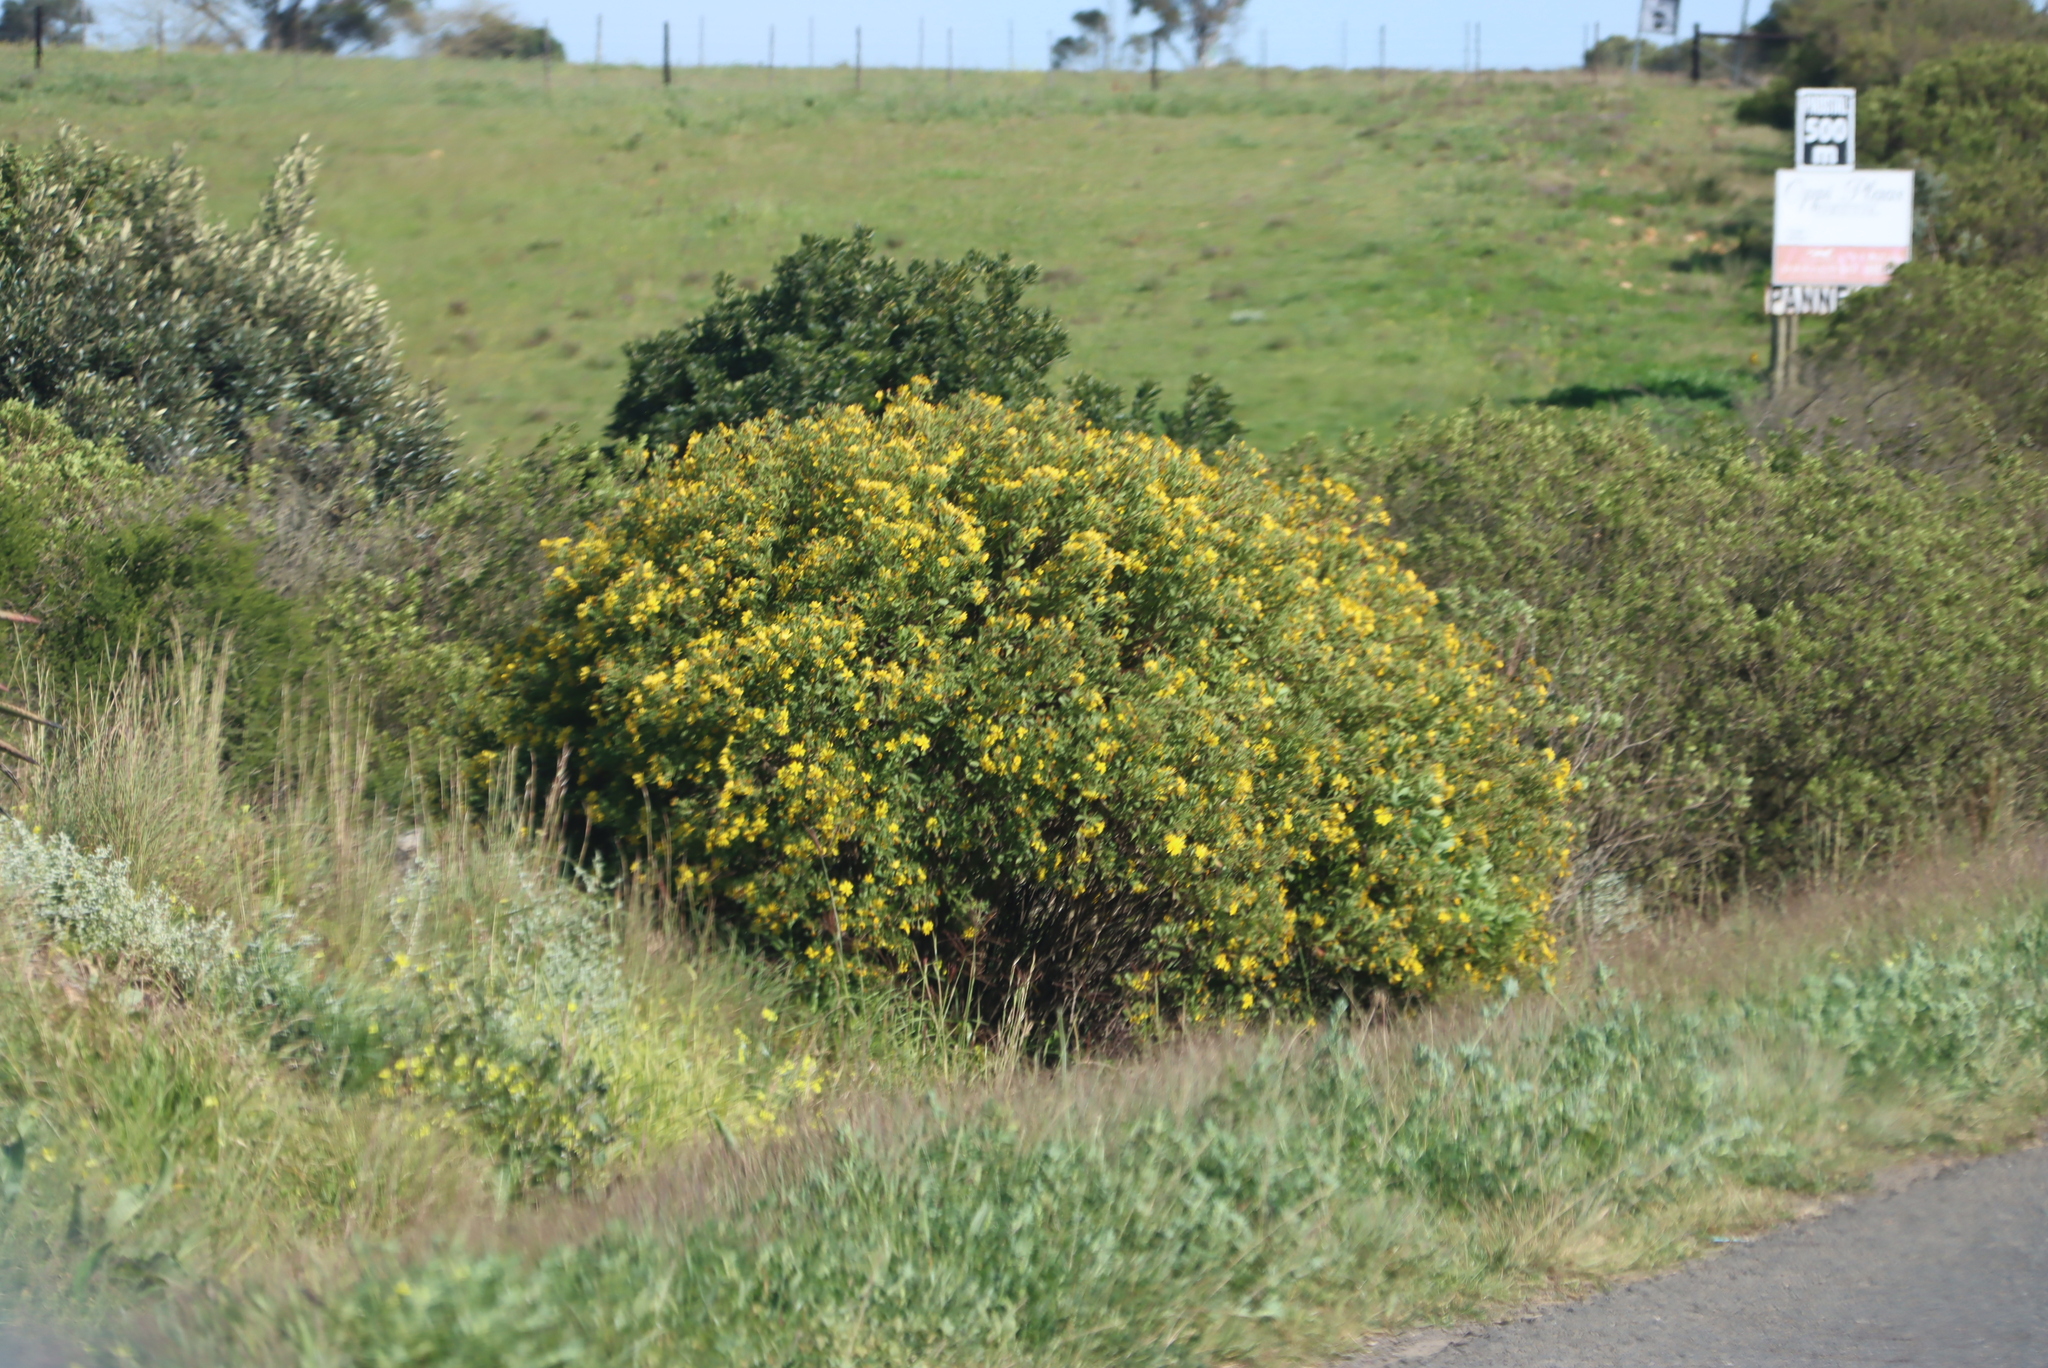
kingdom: Plantae
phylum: Tracheophyta
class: Magnoliopsida
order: Asterales
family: Asteraceae
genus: Osteospermum
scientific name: Osteospermum moniliferum
